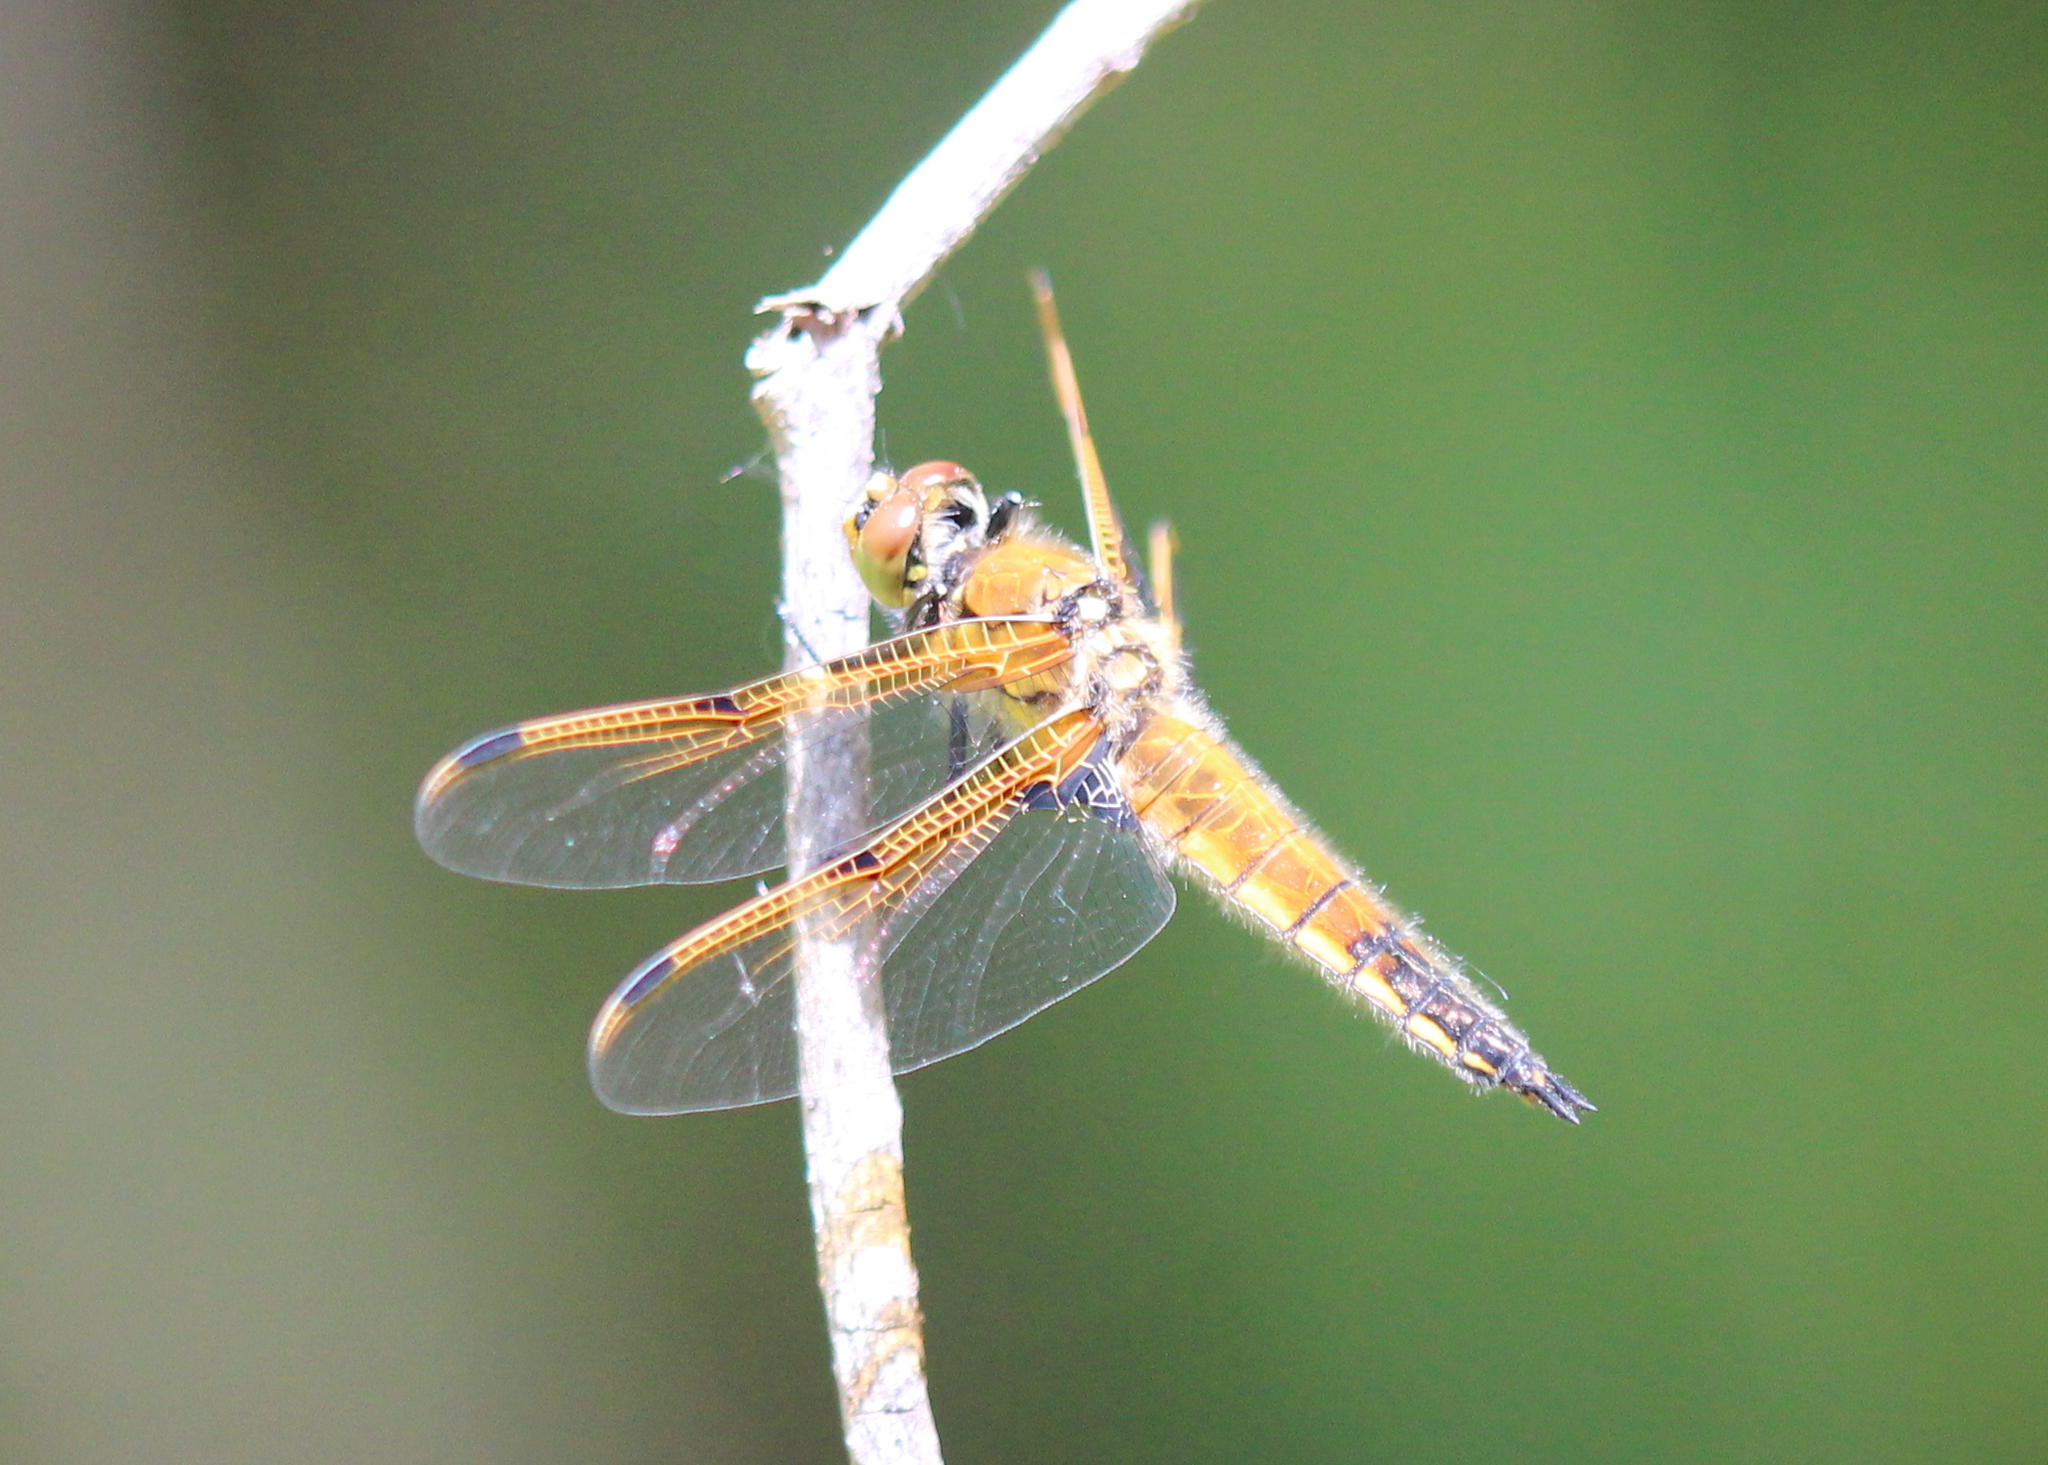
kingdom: Animalia
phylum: Arthropoda
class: Insecta
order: Odonata
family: Libellulidae
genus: Libellula
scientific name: Libellula quadrimaculata
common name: Four-spotted chaser
